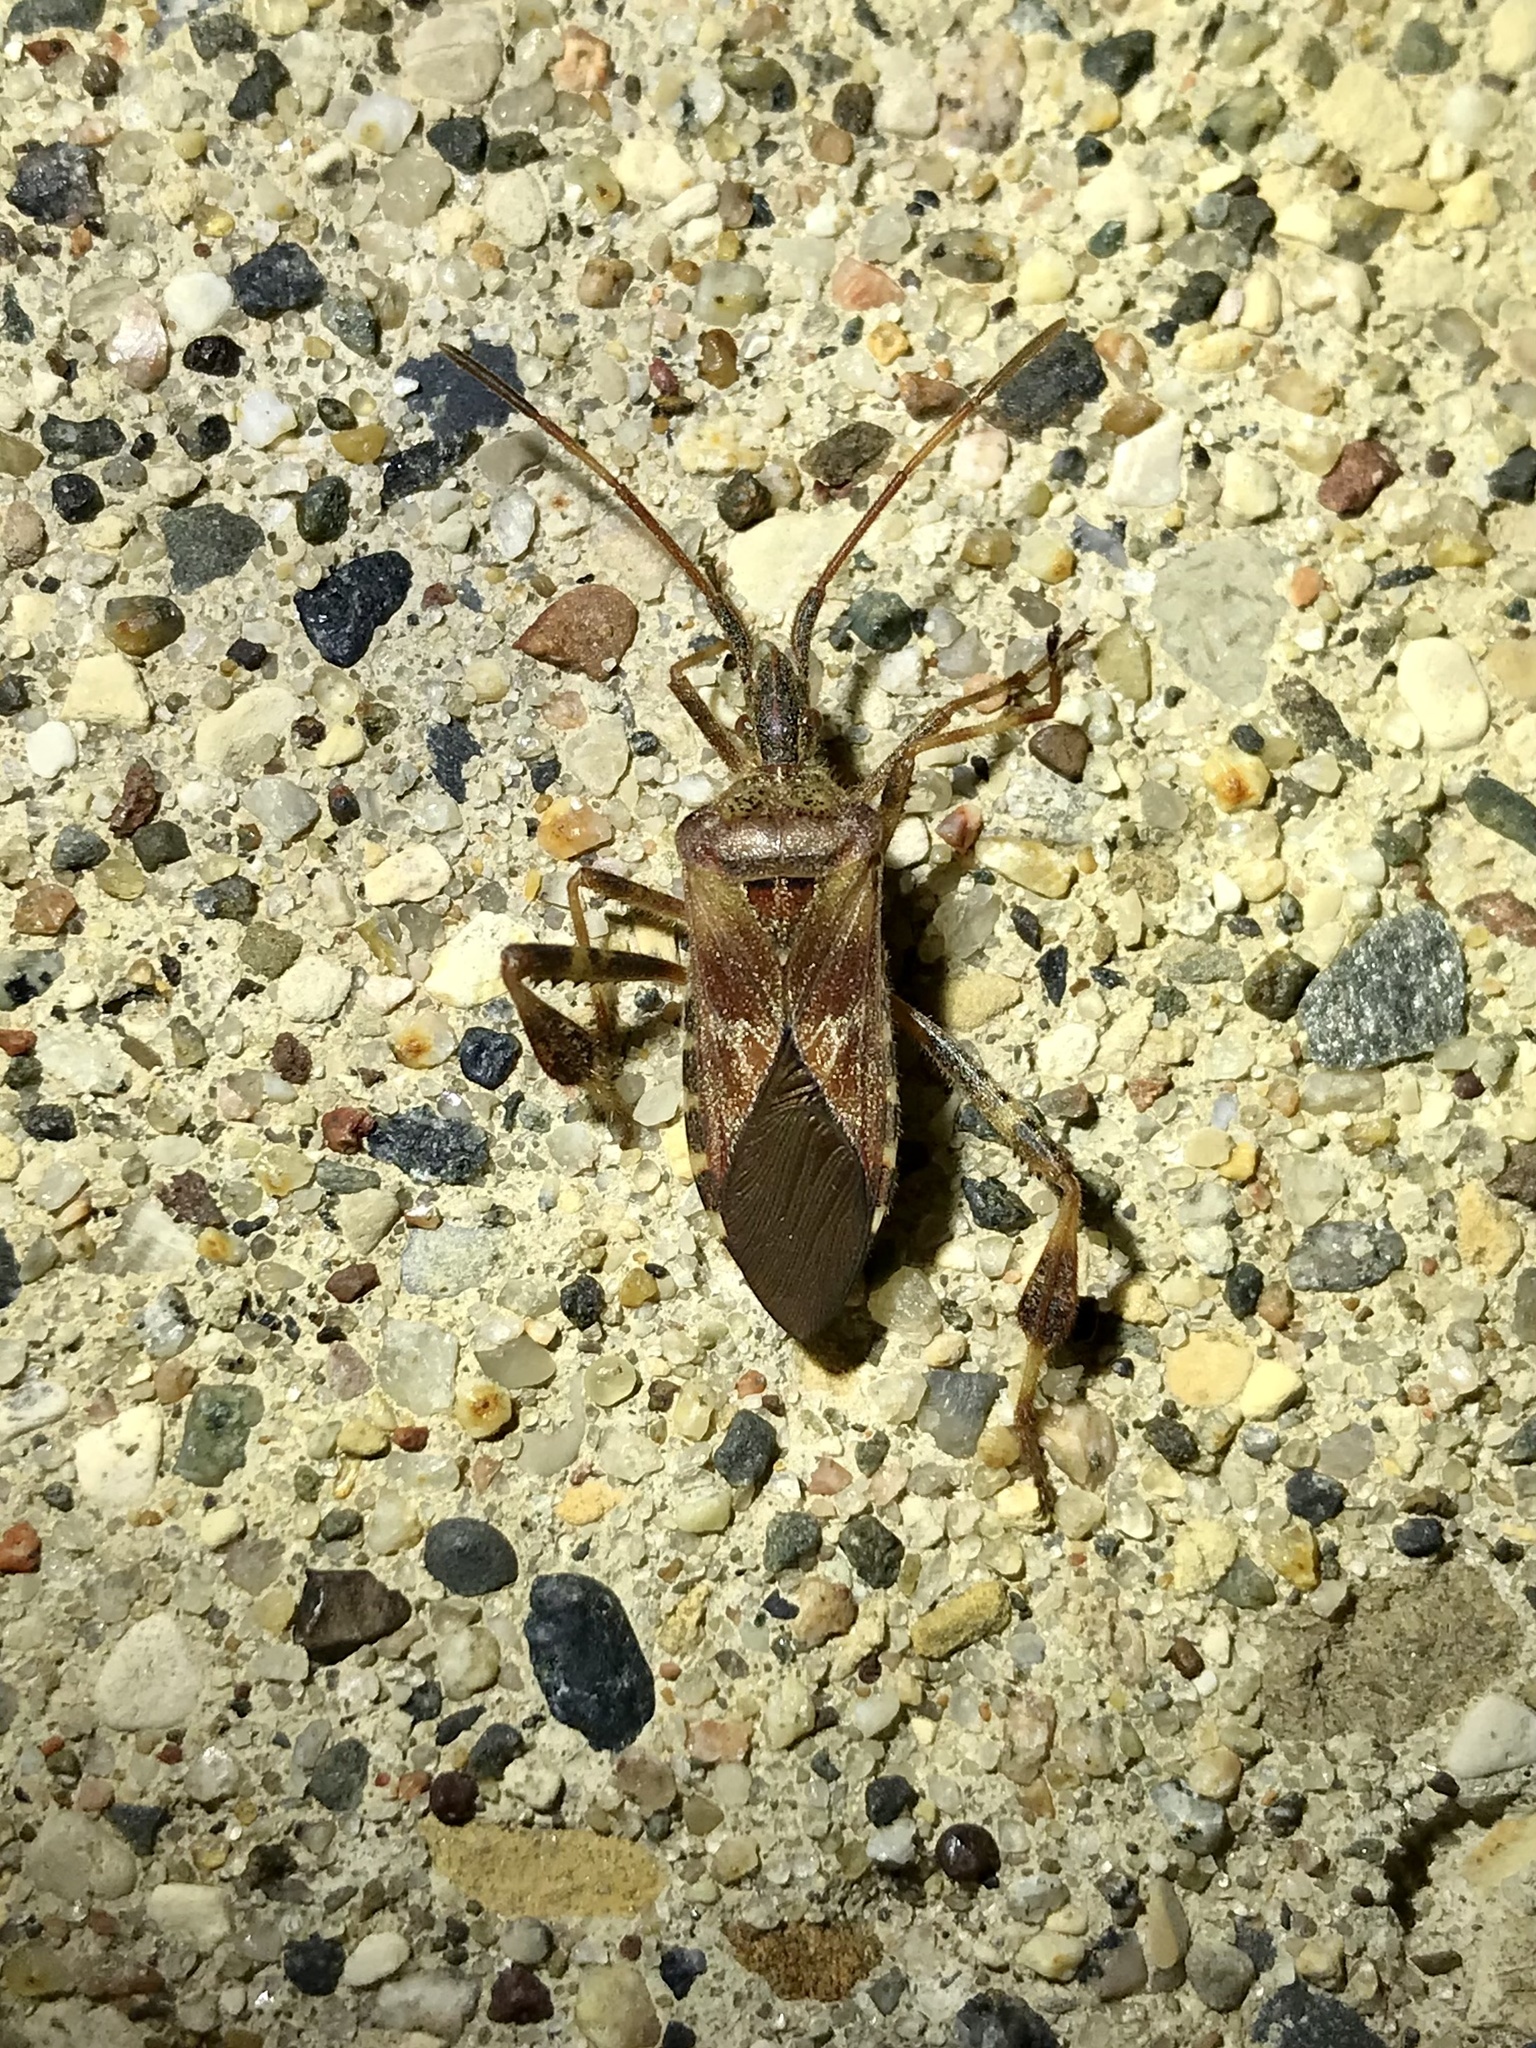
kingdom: Animalia
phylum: Arthropoda
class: Insecta
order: Hemiptera
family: Coreidae
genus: Leptoglossus
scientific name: Leptoglossus occidentalis
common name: Western conifer-seed bug
